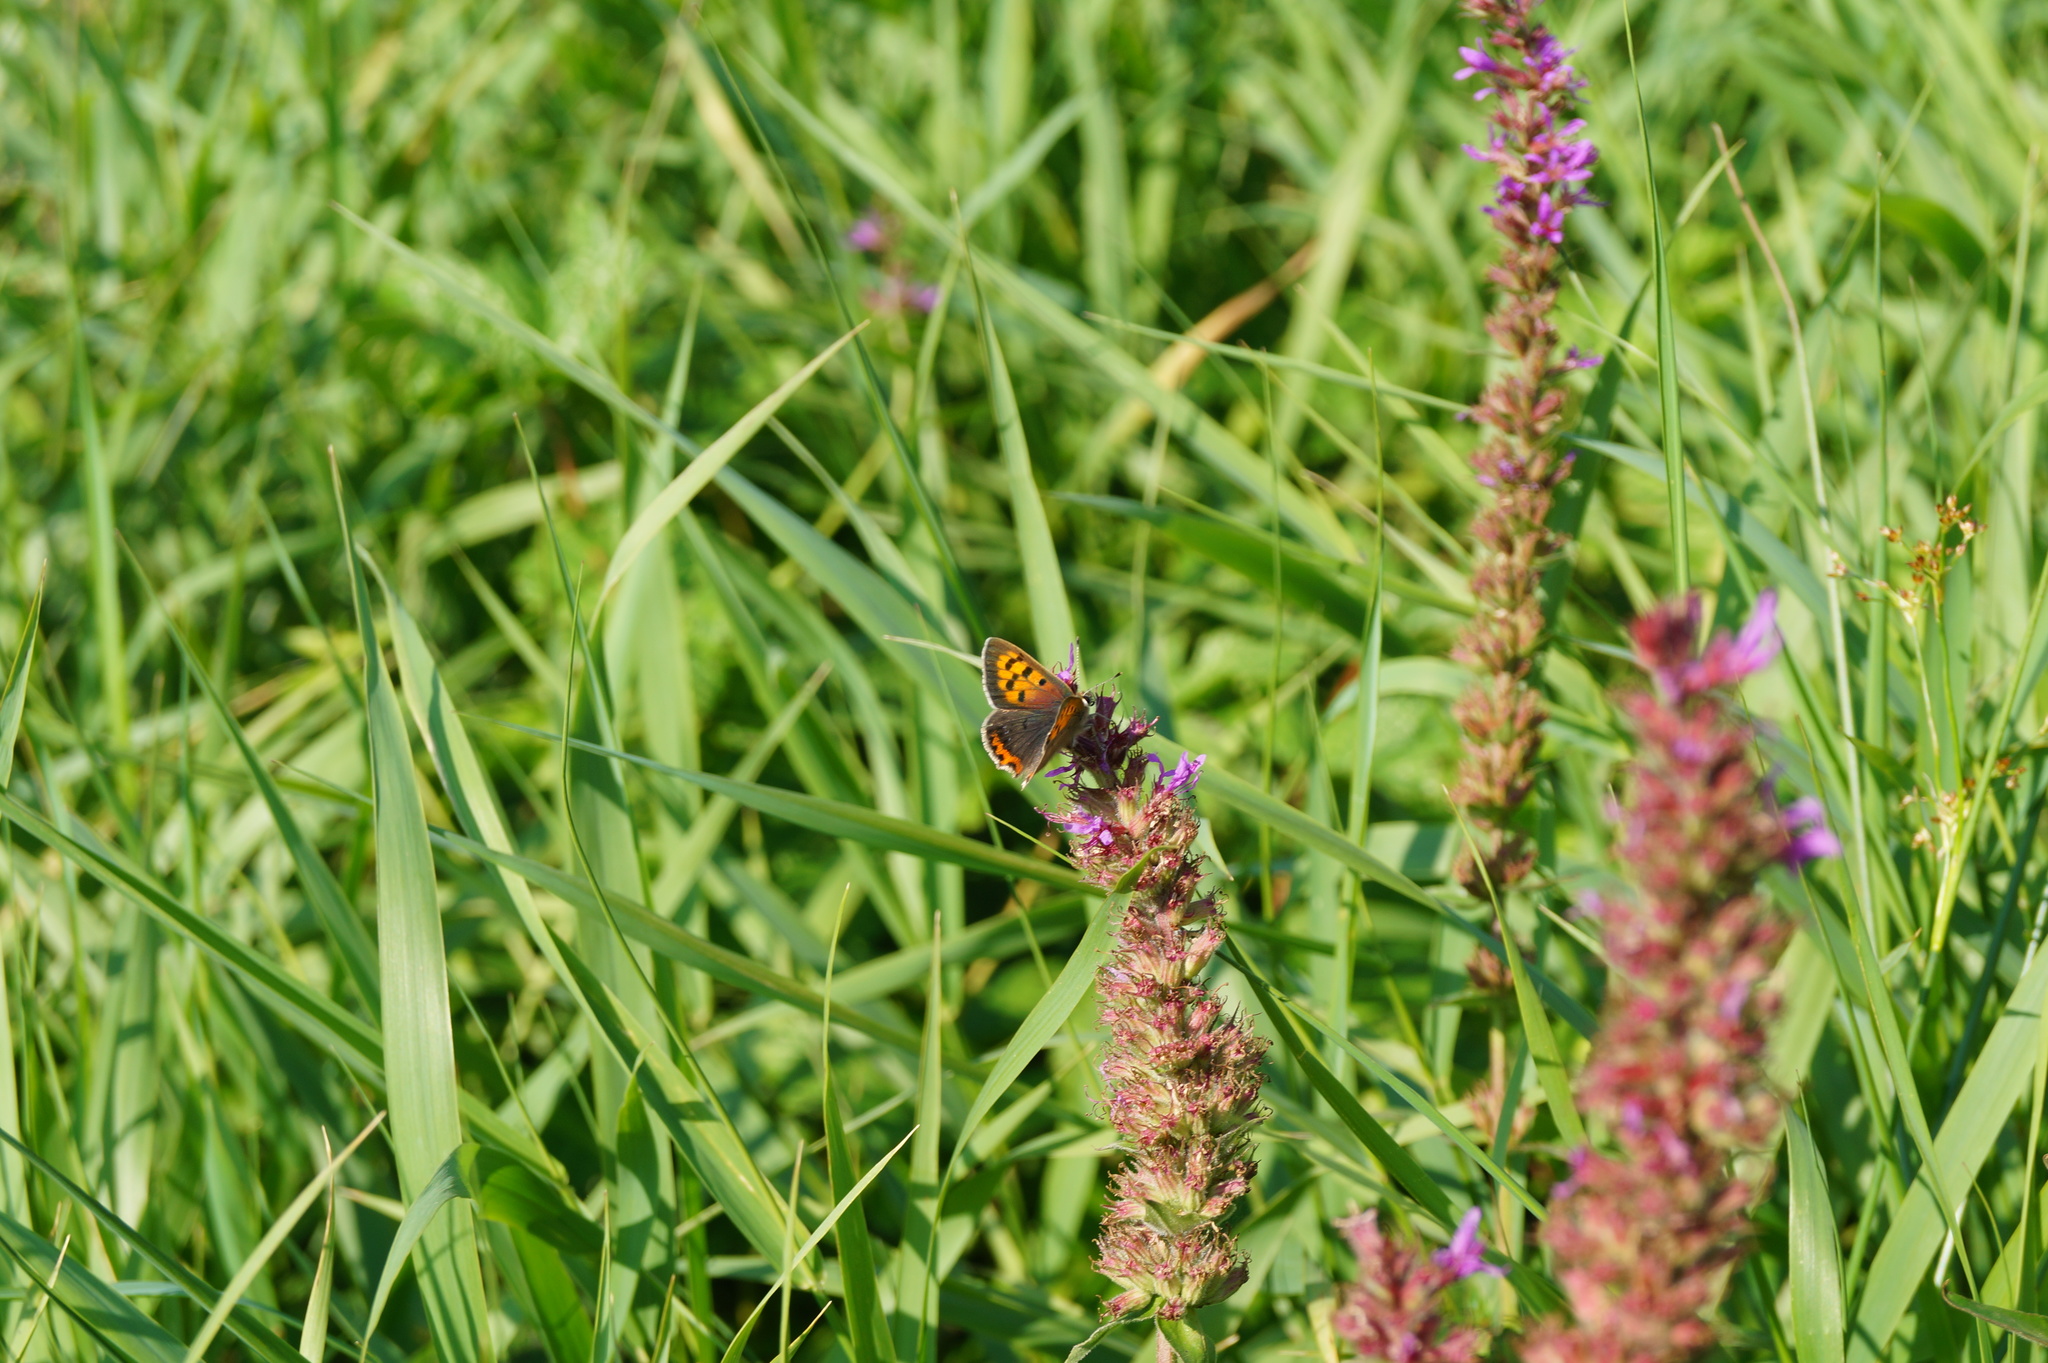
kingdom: Animalia
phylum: Arthropoda
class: Insecta
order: Lepidoptera
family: Lycaenidae
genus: Lycaena
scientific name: Lycaena phlaeas
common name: Small copper
